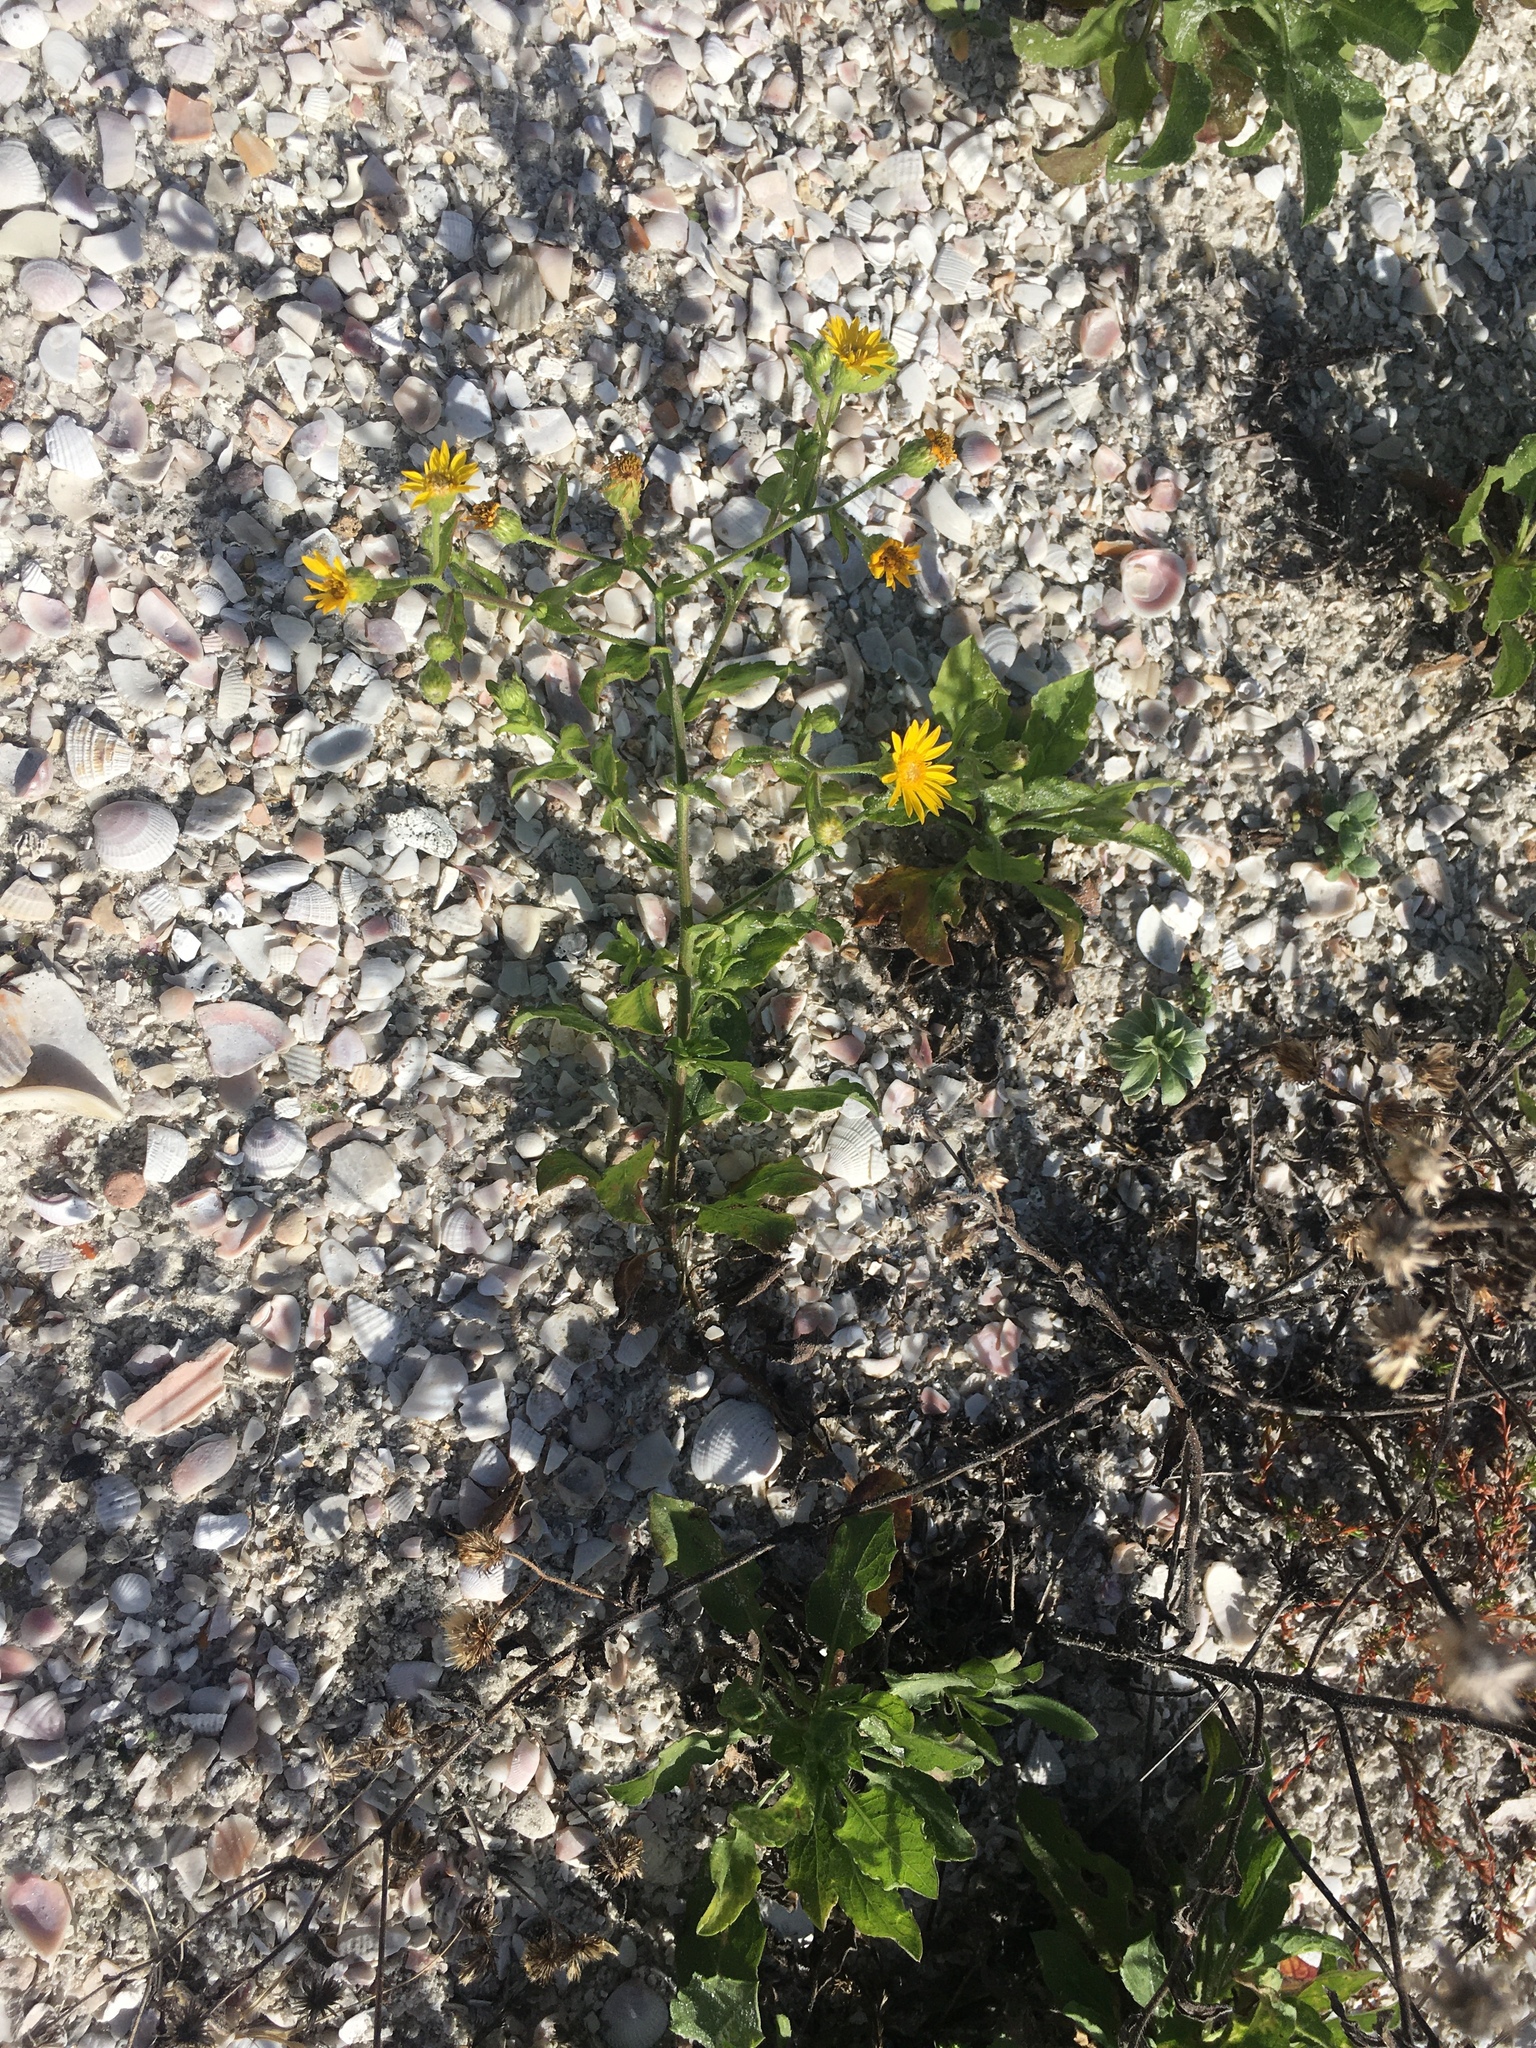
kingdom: Plantae
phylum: Tracheophyta
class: Magnoliopsida
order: Asterales
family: Asteraceae
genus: Heterotheca
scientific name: Heterotheca subaxillaris
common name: Camphorweed
